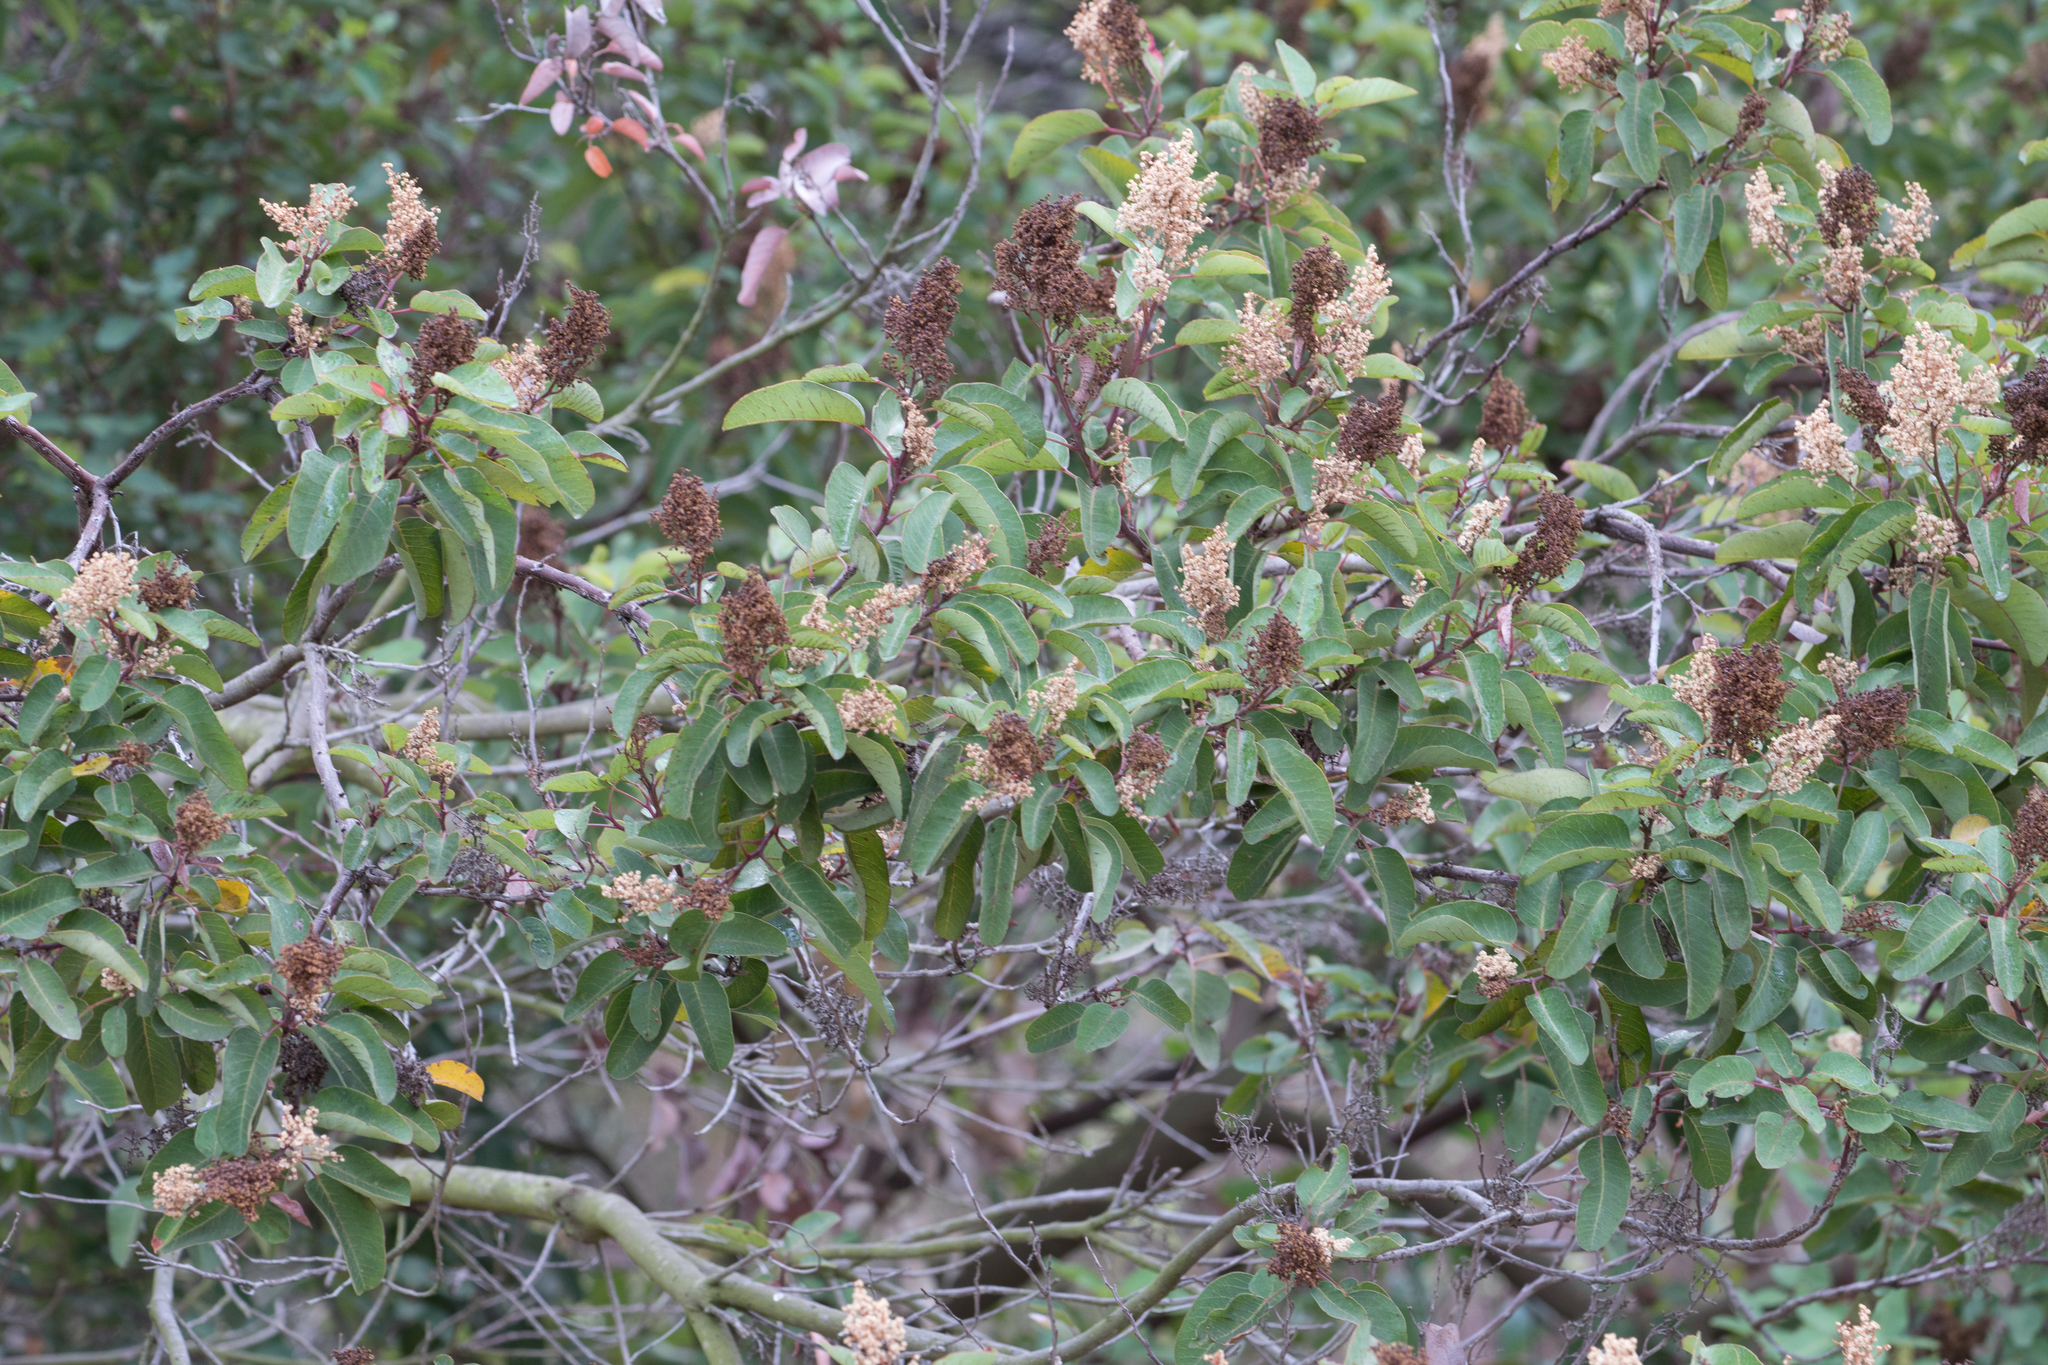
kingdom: Plantae
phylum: Tracheophyta
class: Magnoliopsida
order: Sapindales
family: Anacardiaceae
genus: Malosma
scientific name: Malosma laurina
